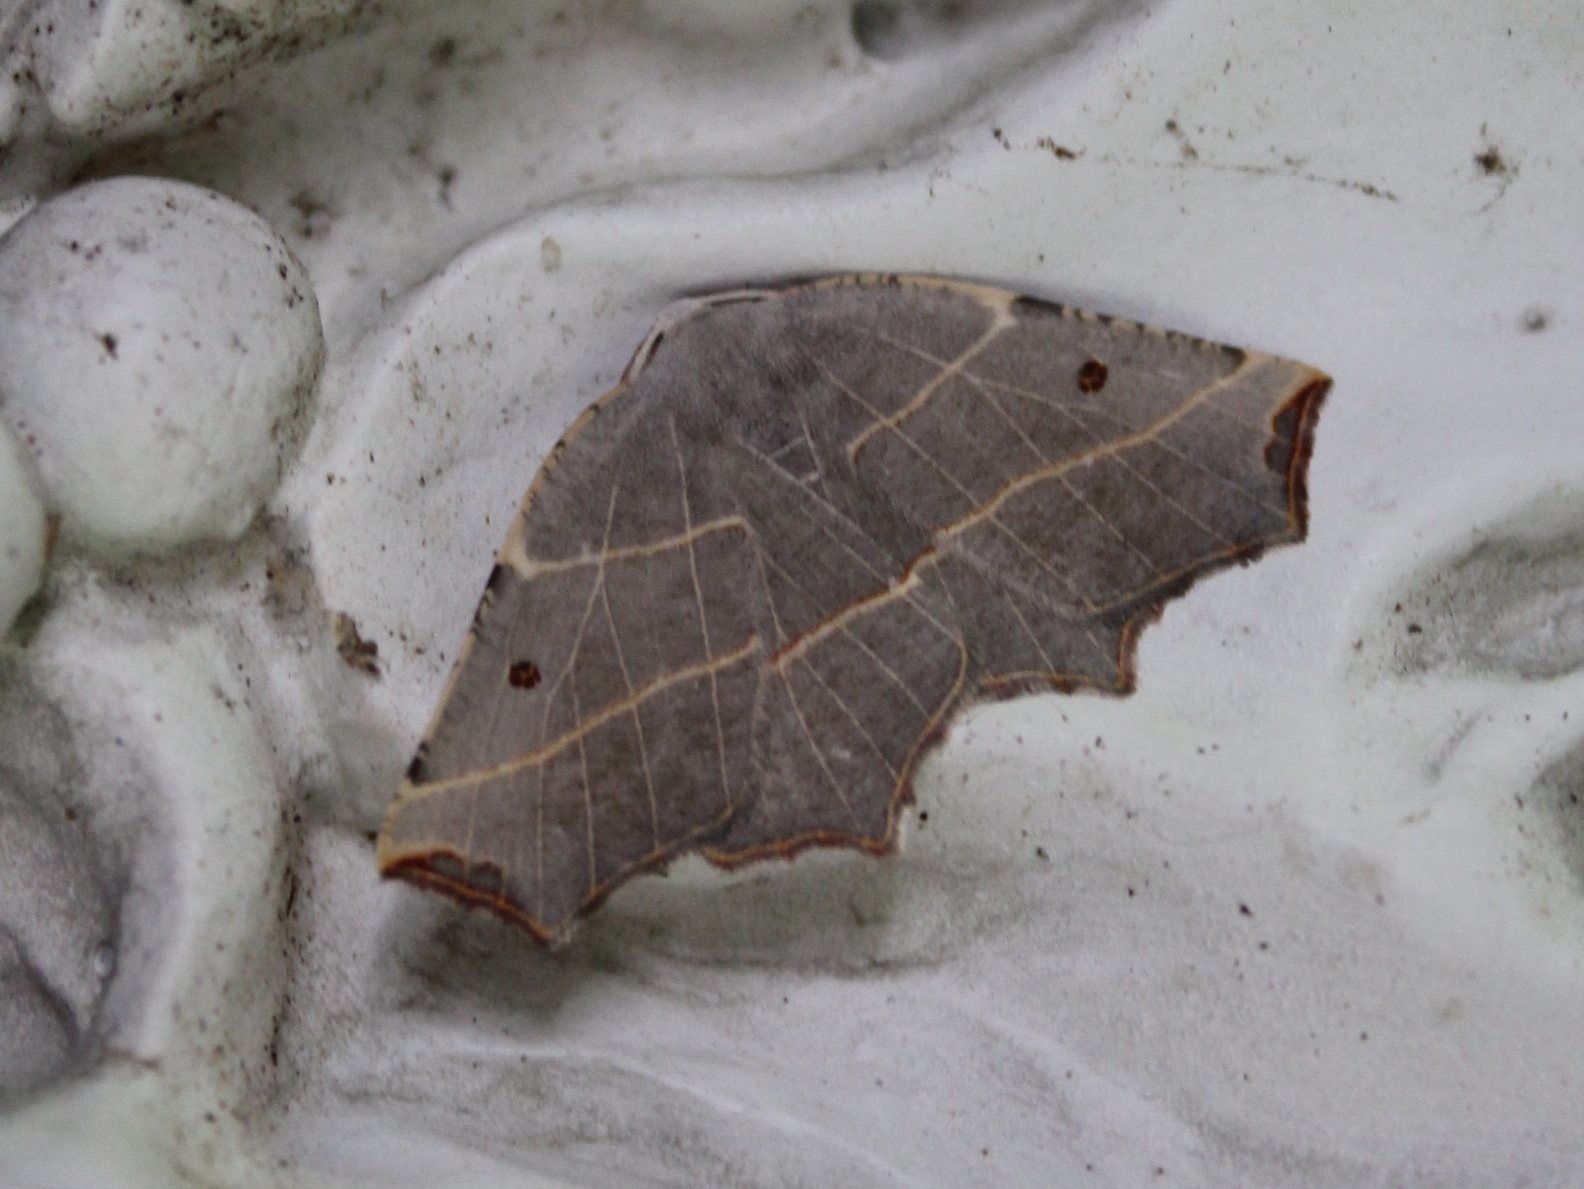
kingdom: Animalia
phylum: Arthropoda
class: Insecta
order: Lepidoptera
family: Geometridae
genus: Metanema
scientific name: Metanema inatomaria
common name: Pale metanema
